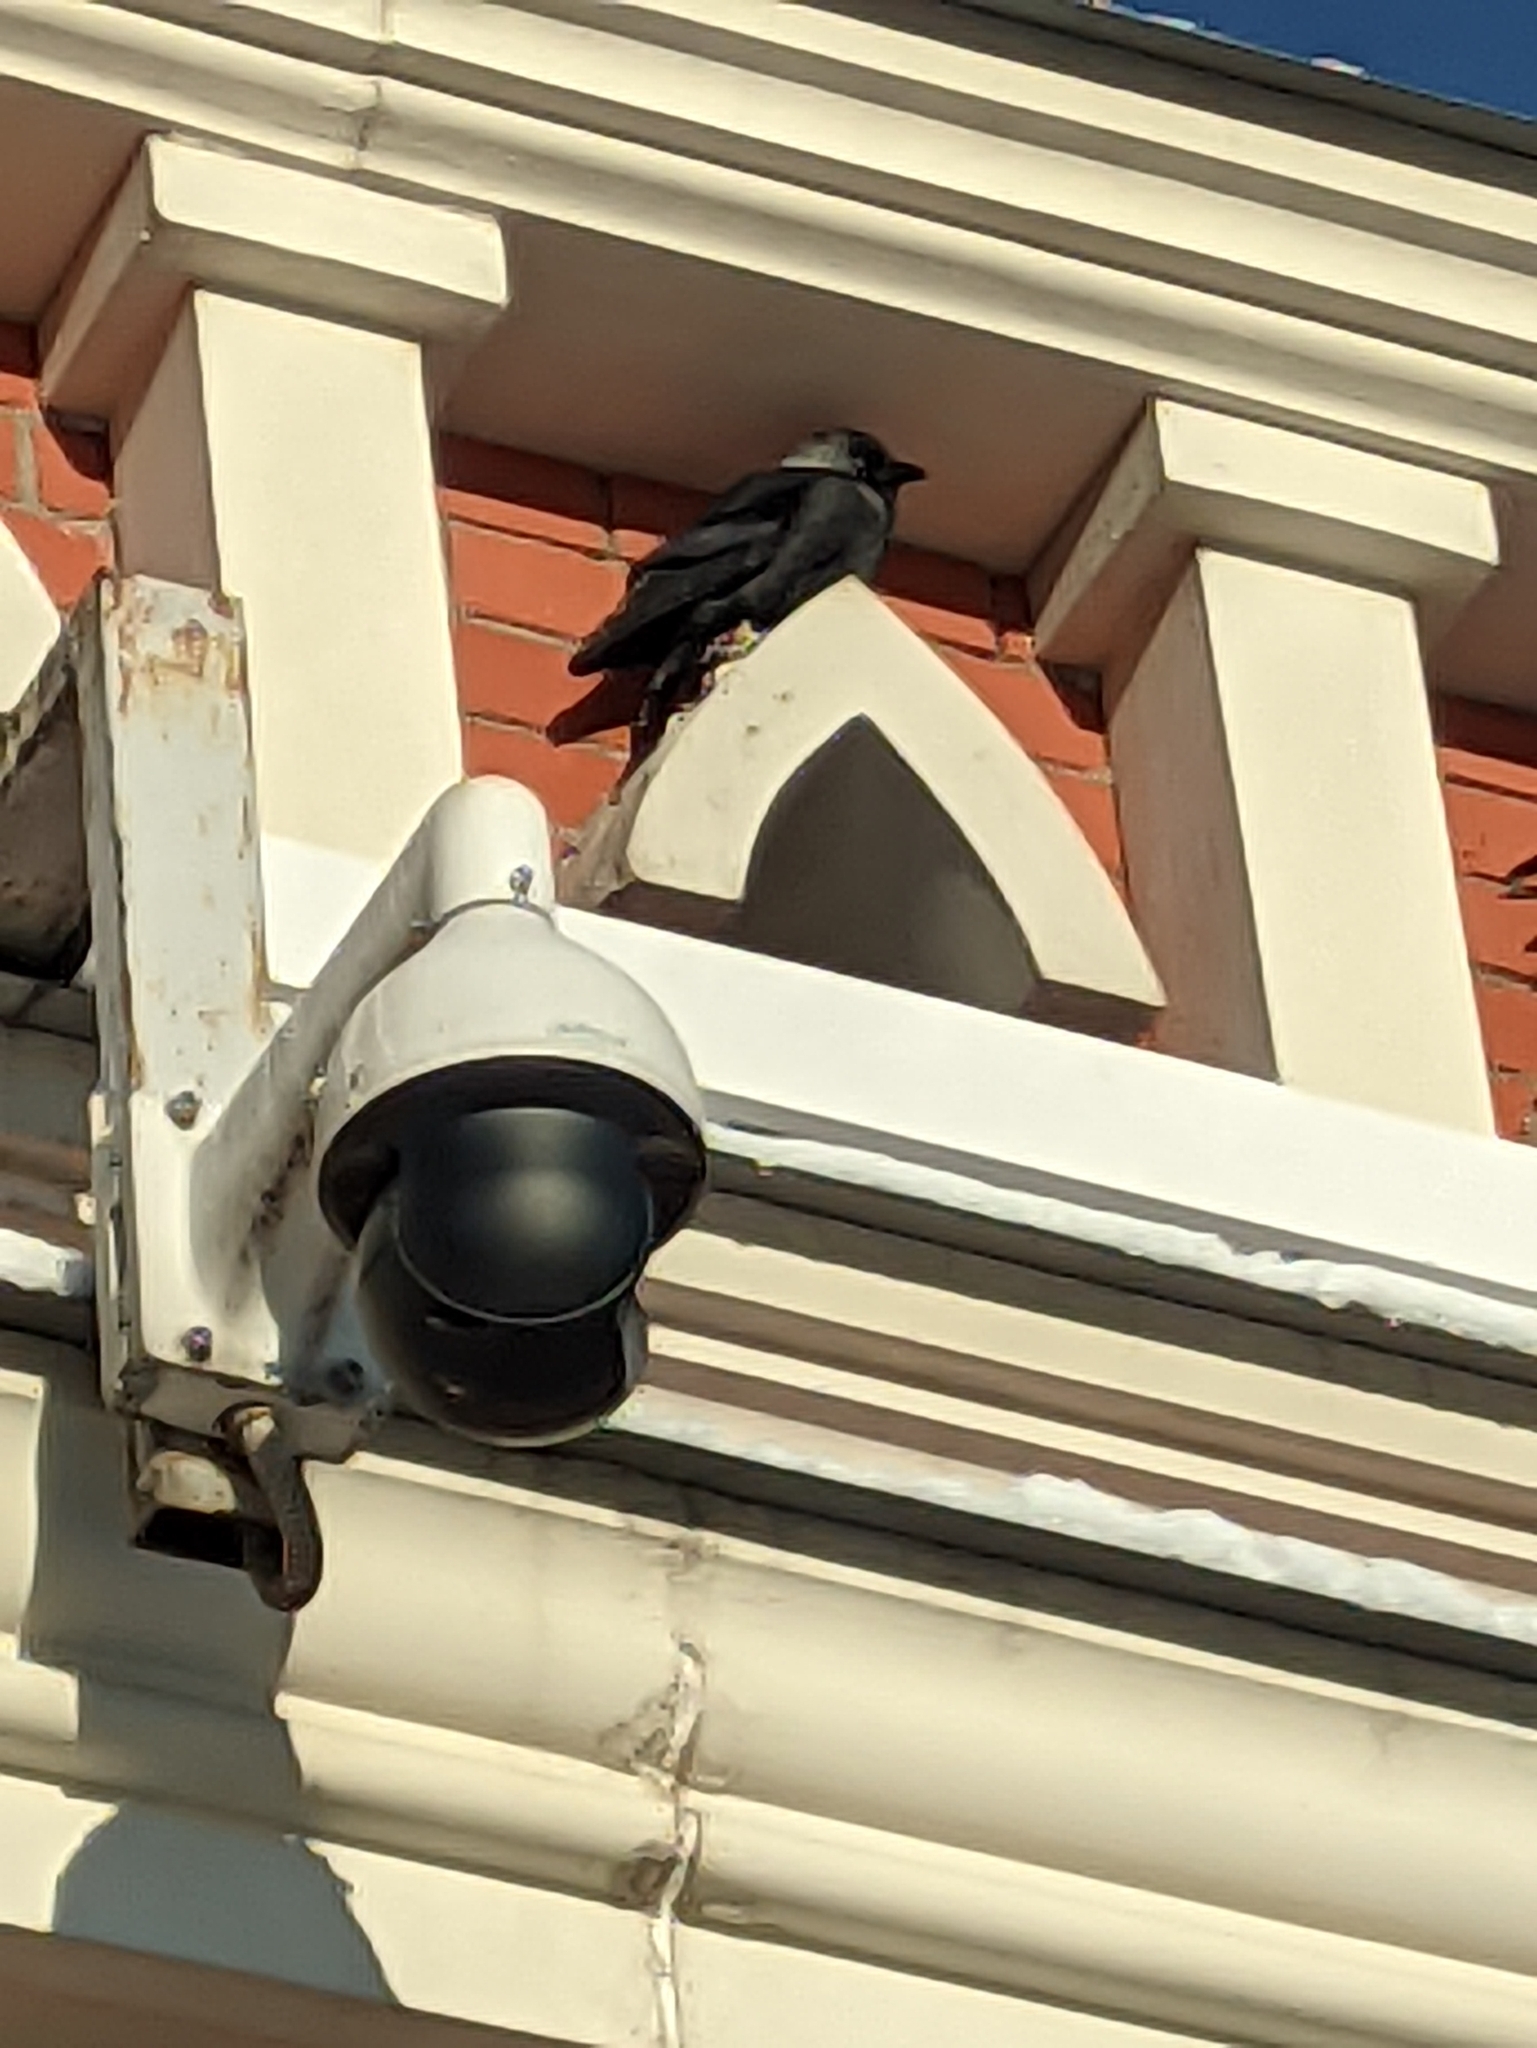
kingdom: Animalia
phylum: Chordata
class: Aves
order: Passeriformes
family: Corvidae
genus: Coloeus
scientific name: Coloeus monedula
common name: Western jackdaw
